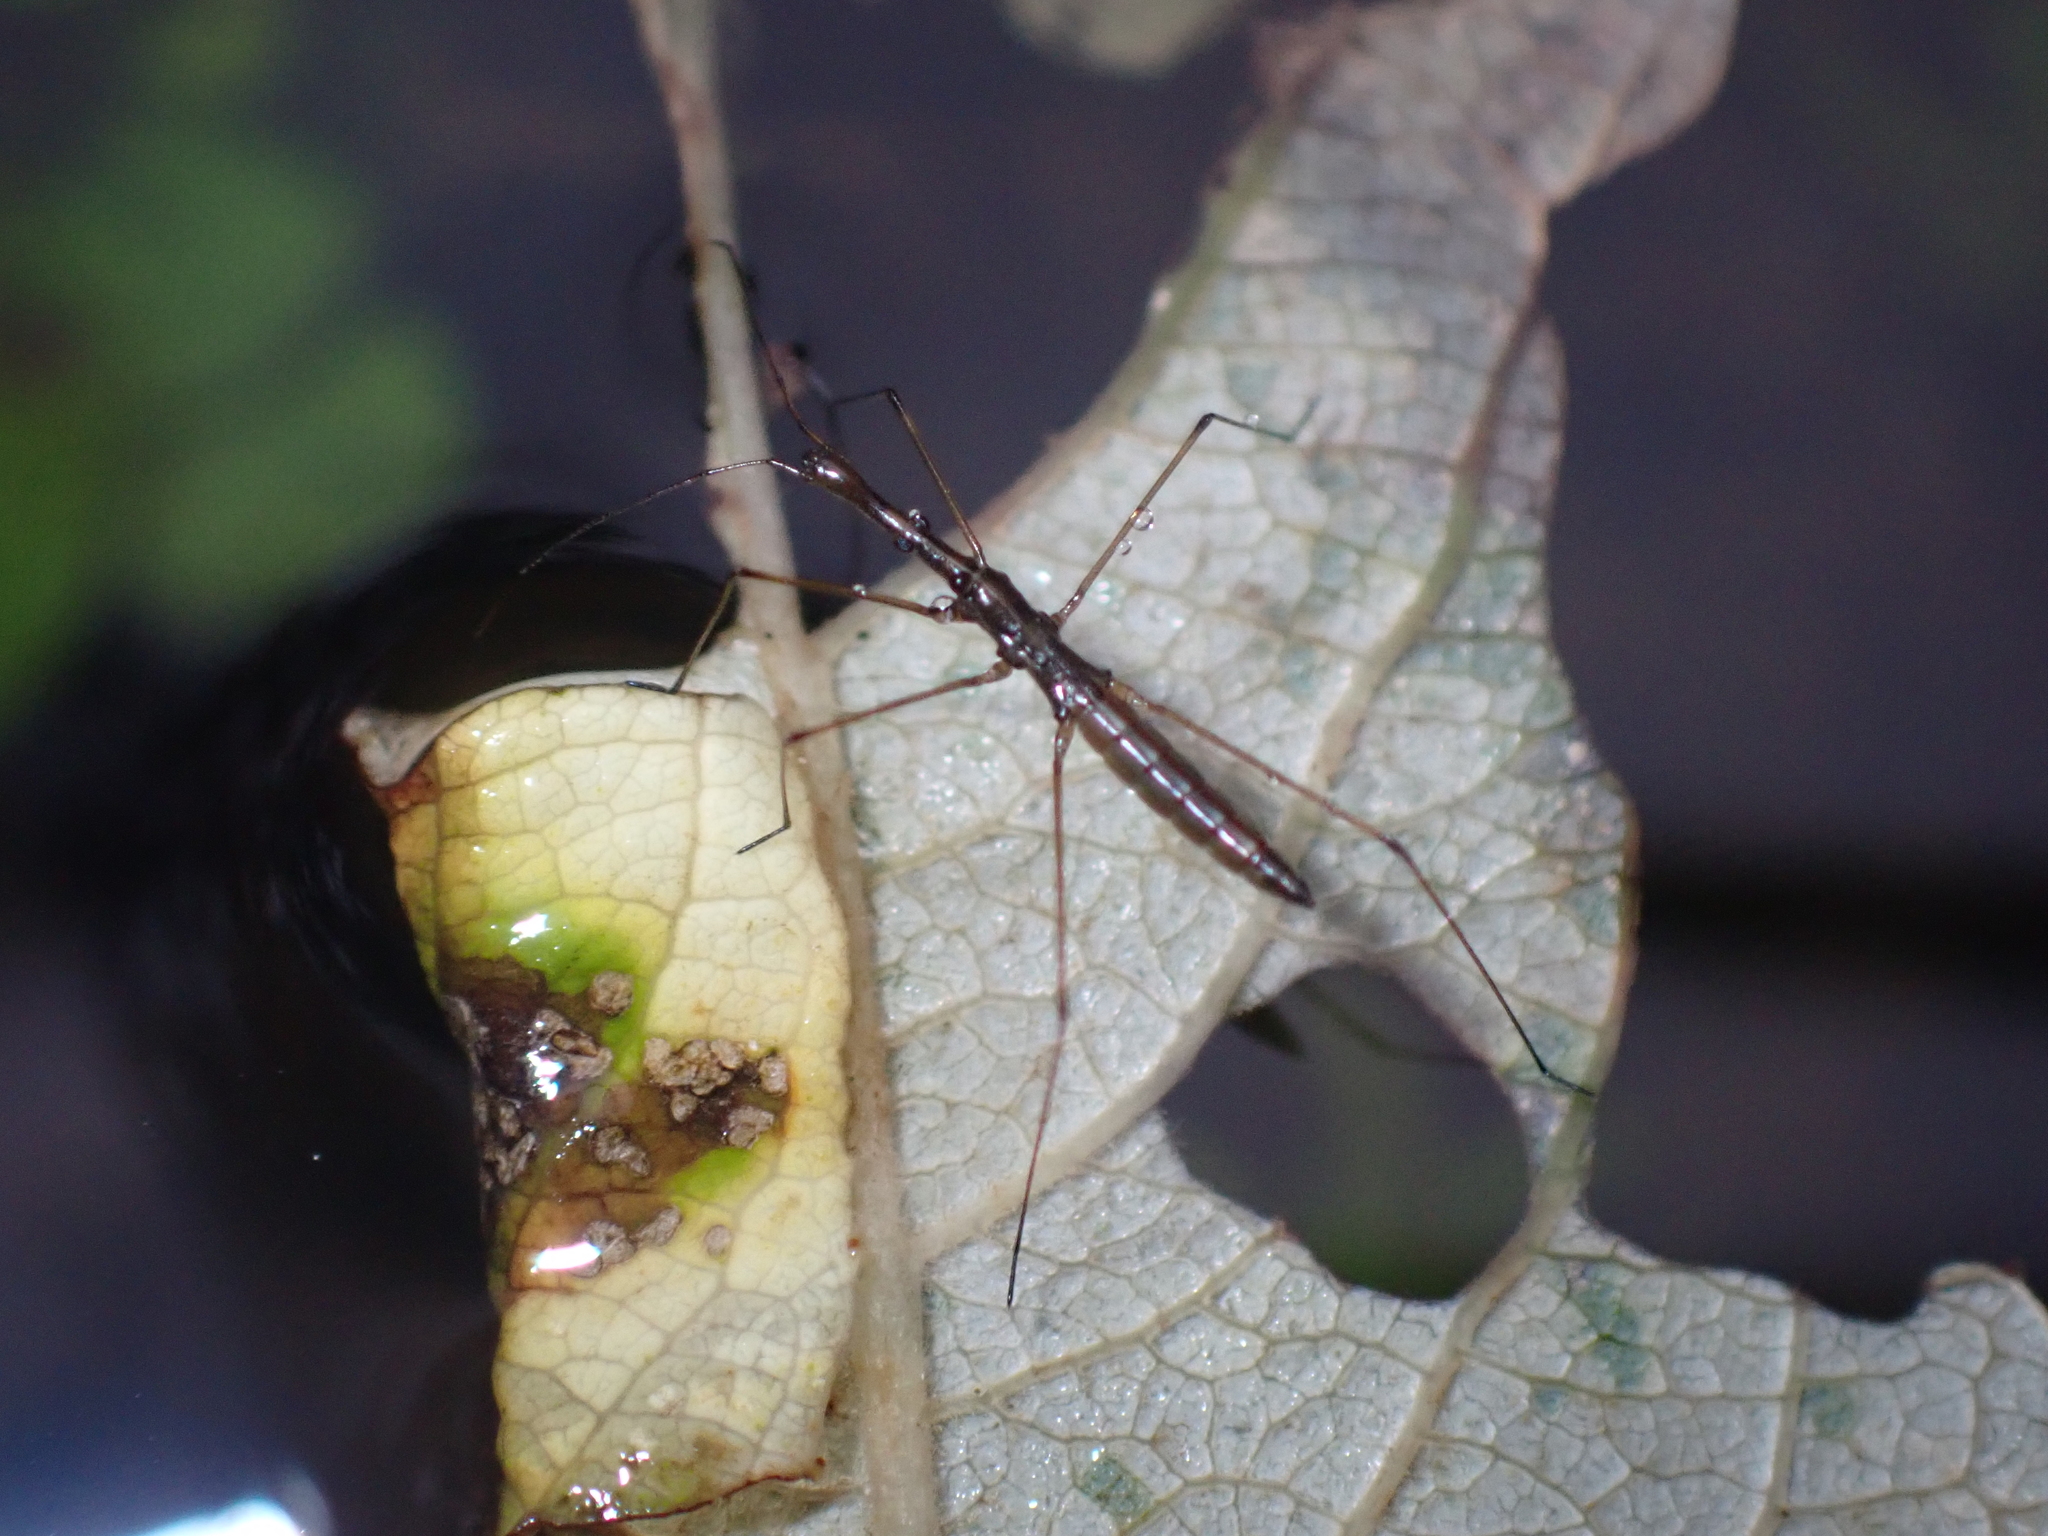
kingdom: Animalia
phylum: Arthropoda
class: Insecta
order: Hemiptera
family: Hydrometridae
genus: Hydrometra
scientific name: Hydrometra stagnorum
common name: Water measurer
